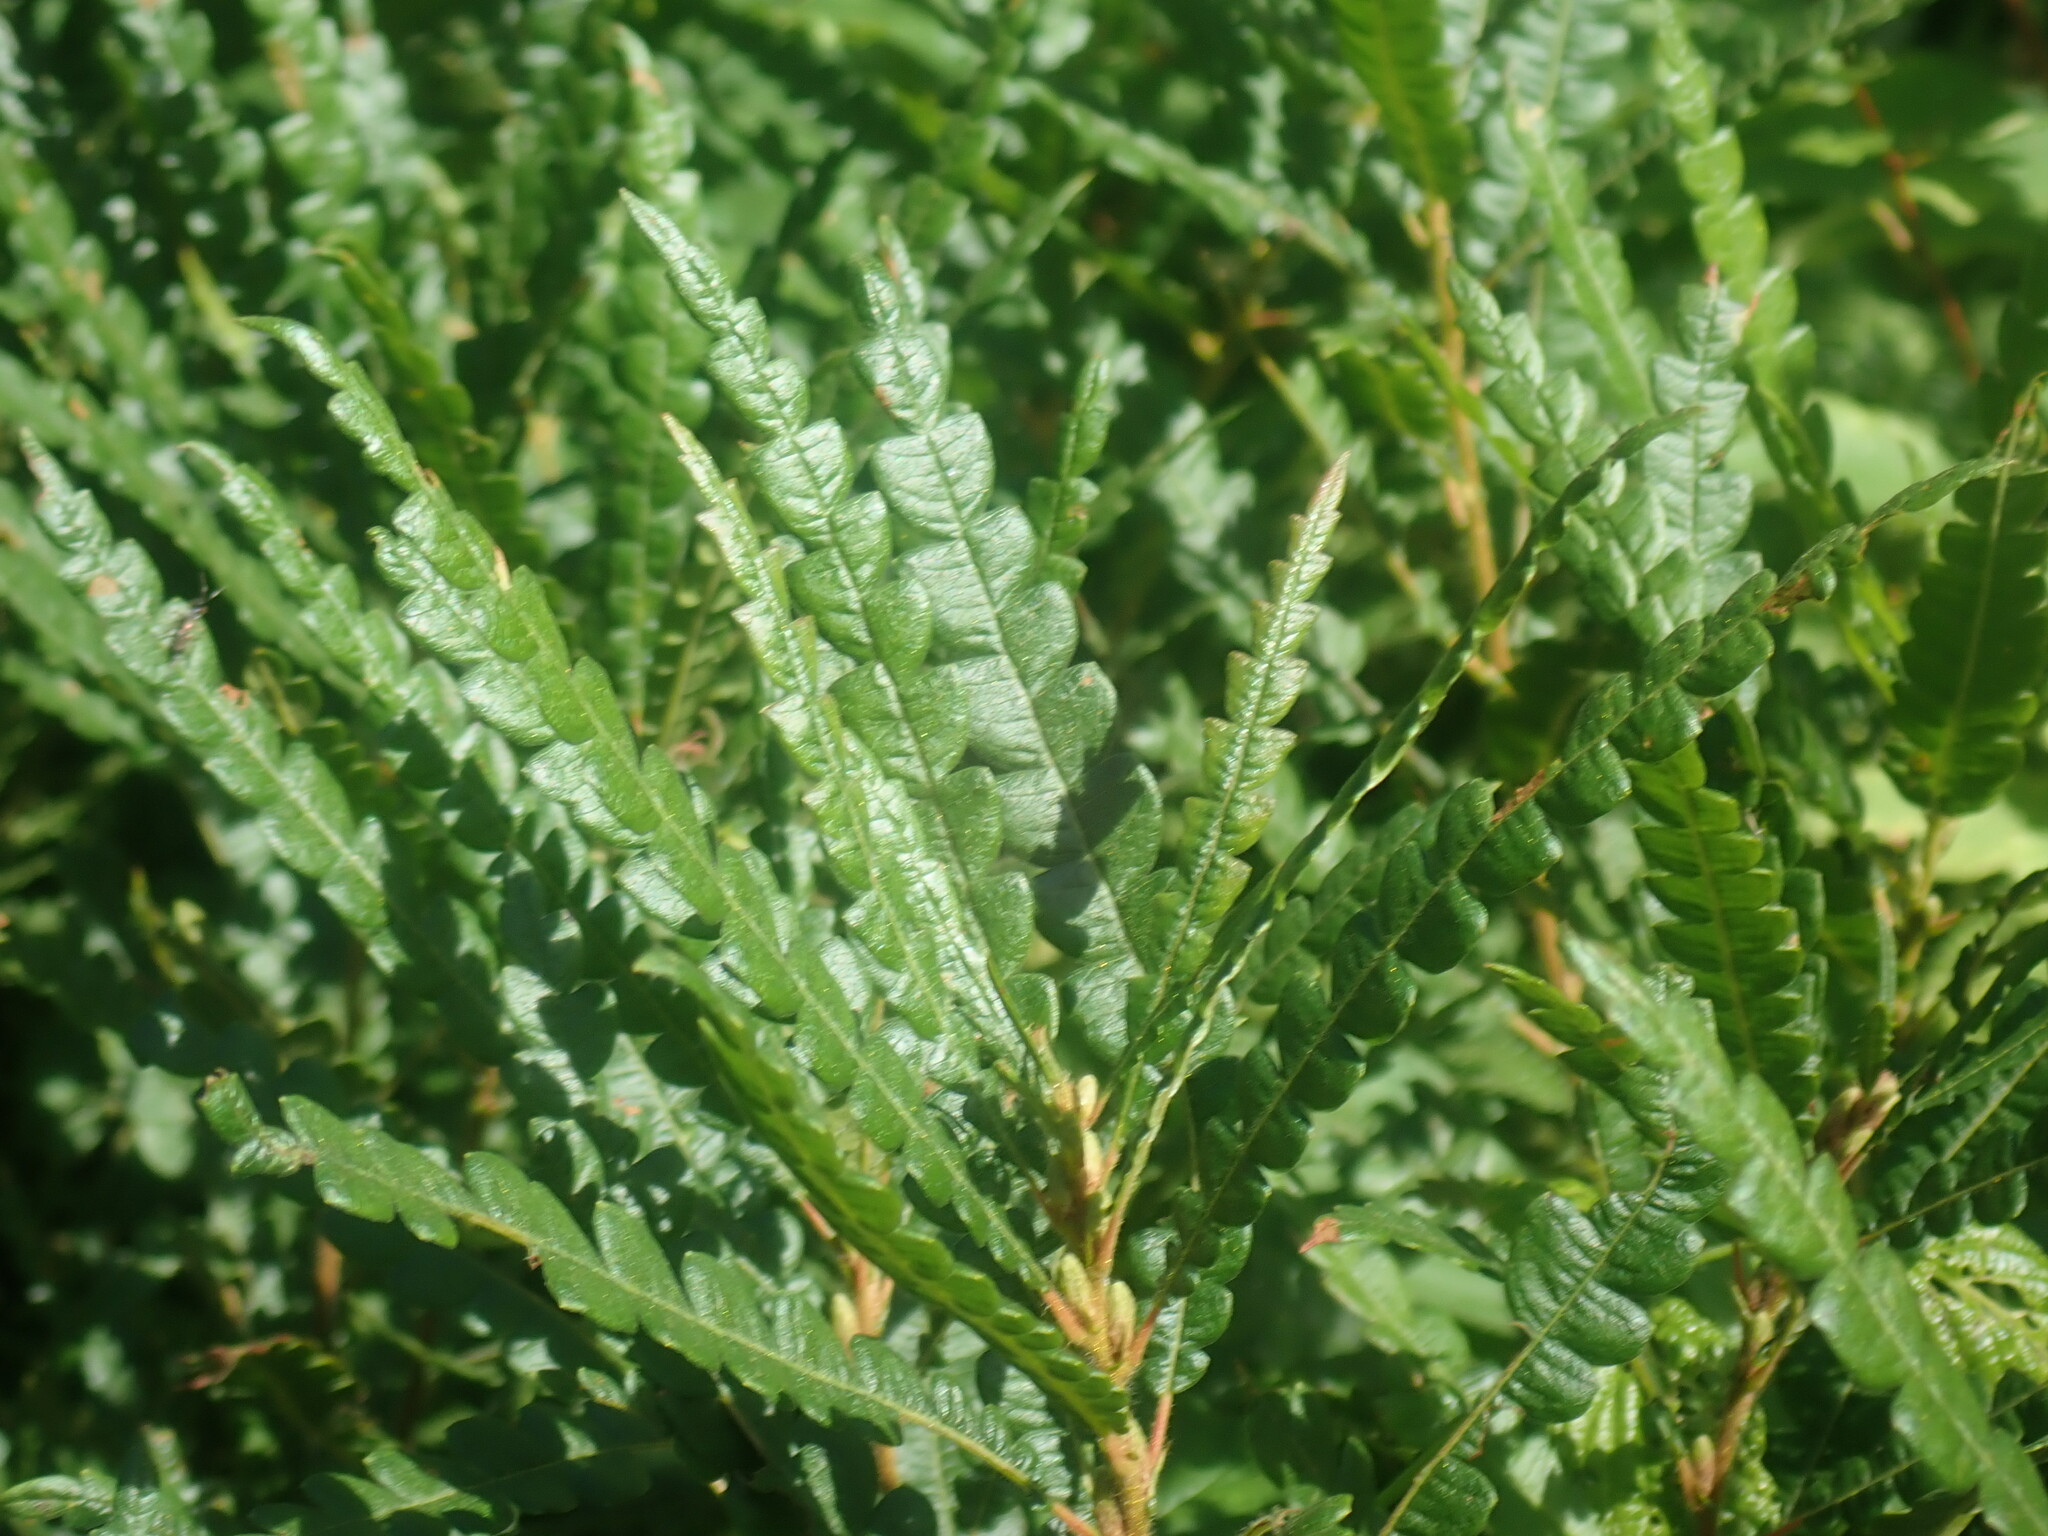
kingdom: Plantae
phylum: Tracheophyta
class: Magnoliopsida
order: Fagales
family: Myricaceae
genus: Comptonia
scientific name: Comptonia peregrina
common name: Sweet-fern
